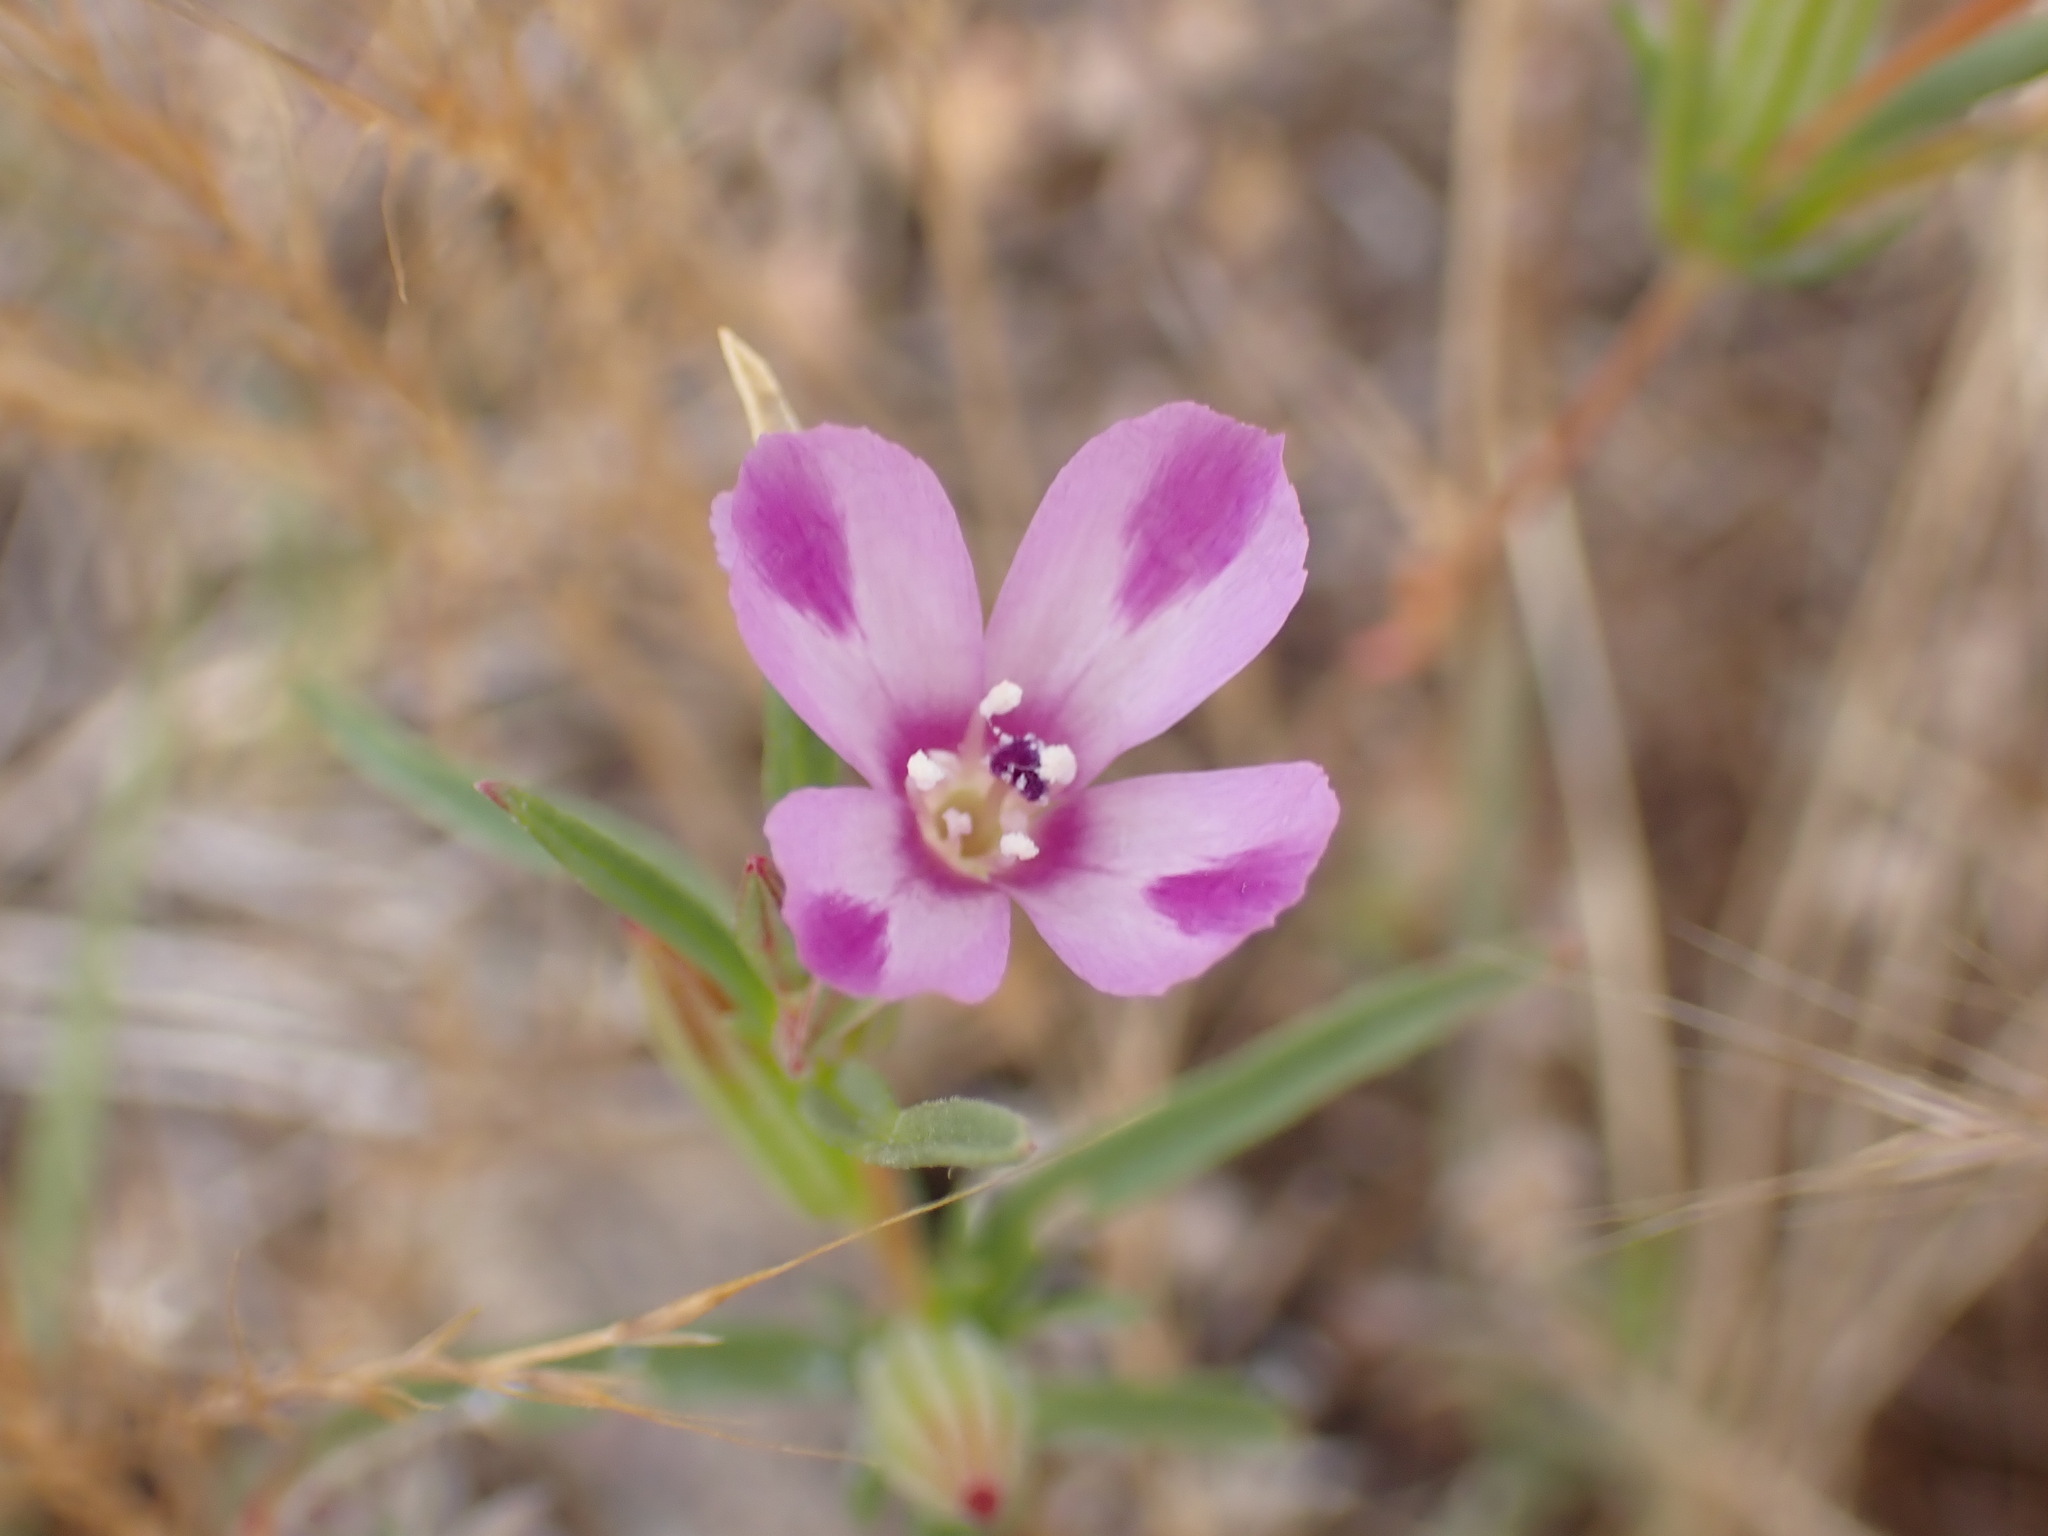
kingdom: Plantae
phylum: Tracheophyta
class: Magnoliopsida
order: Myrtales
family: Onagraceae
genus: Clarkia
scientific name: Clarkia purpurea
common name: Purple clarkia
